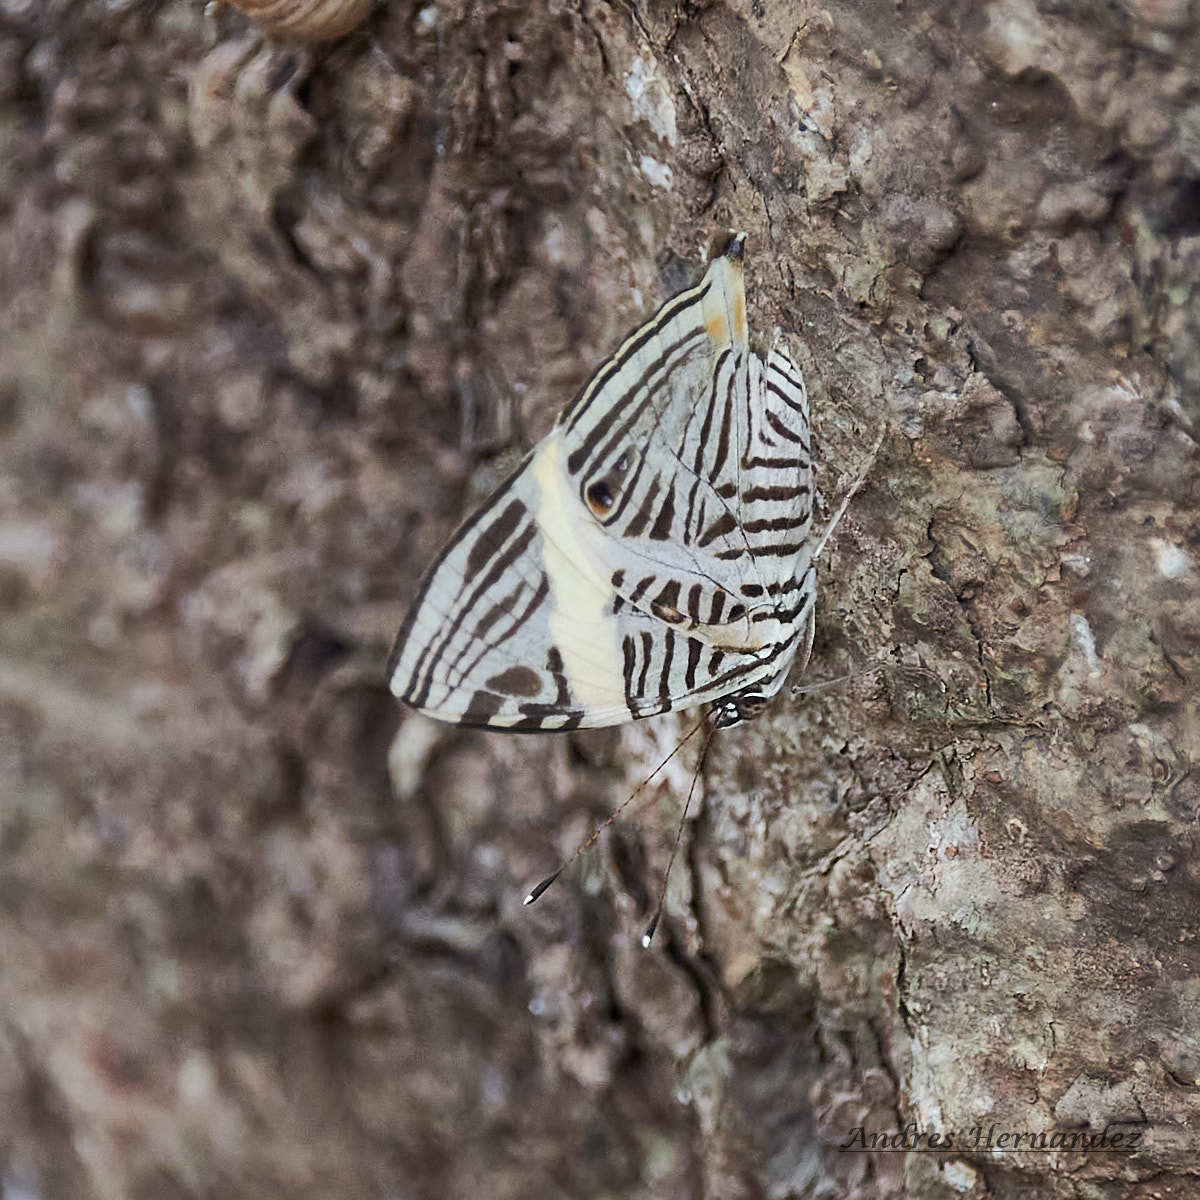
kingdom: Animalia
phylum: Arthropoda
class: Insecta
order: Lepidoptera
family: Nymphalidae
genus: Colobura
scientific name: Colobura dirce
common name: Dirce beauty
